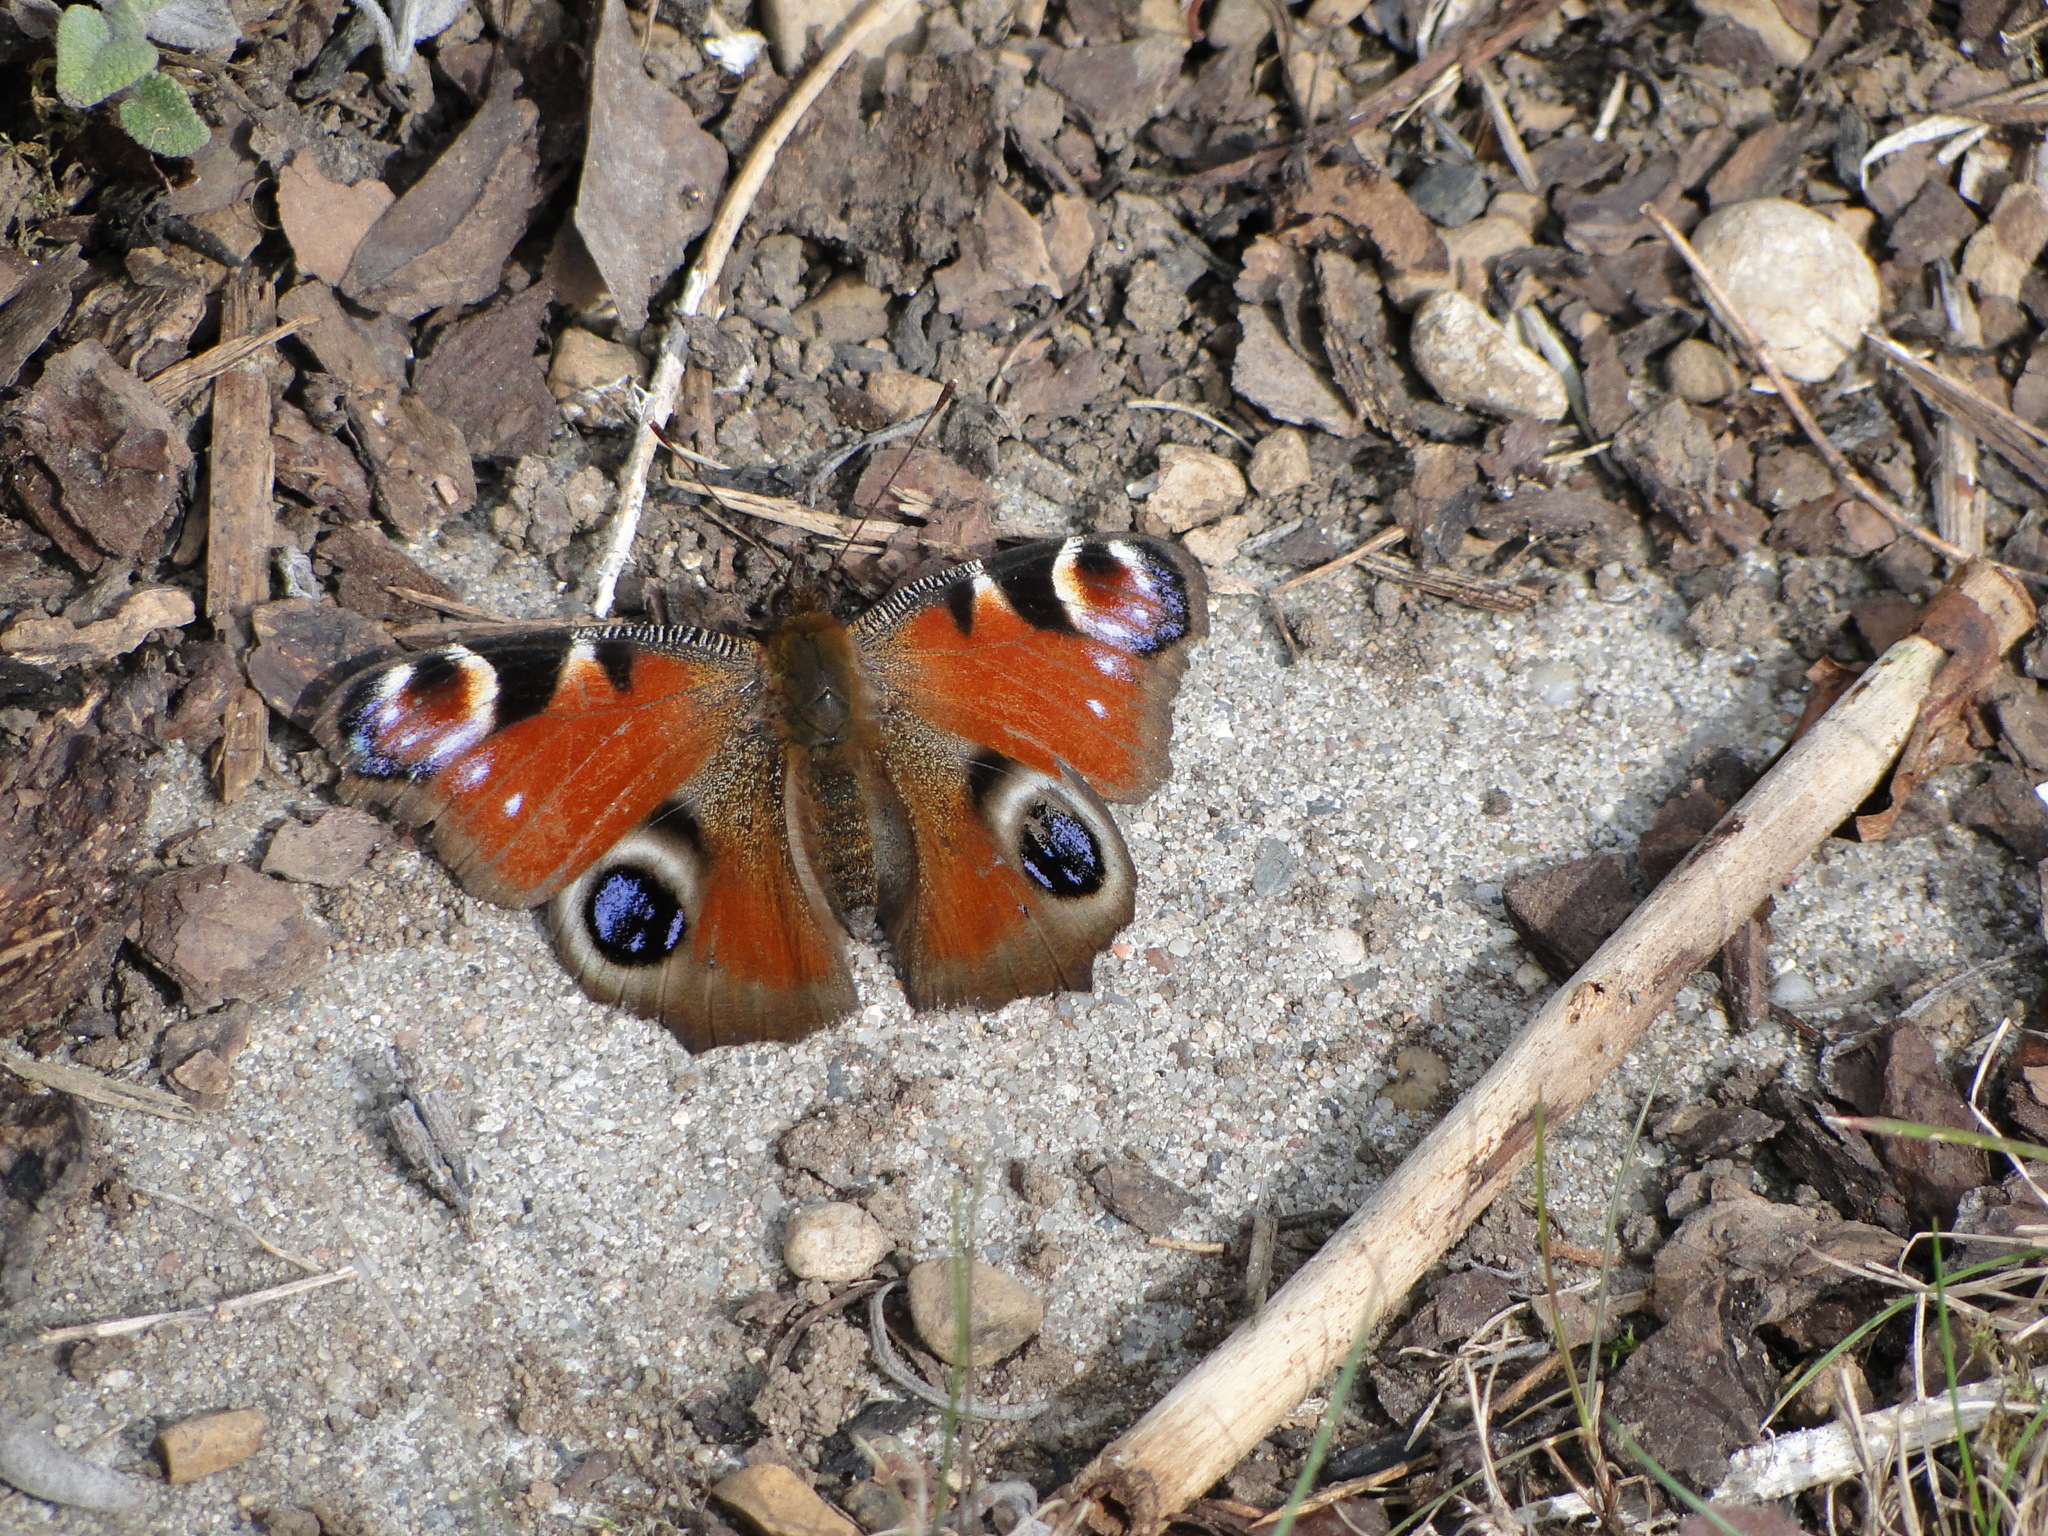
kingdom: Animalia
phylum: Arthropoda
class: Insecta
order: Lepidoptera
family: Nymphalidae
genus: Aglais
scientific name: Aglais io
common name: Peacock
